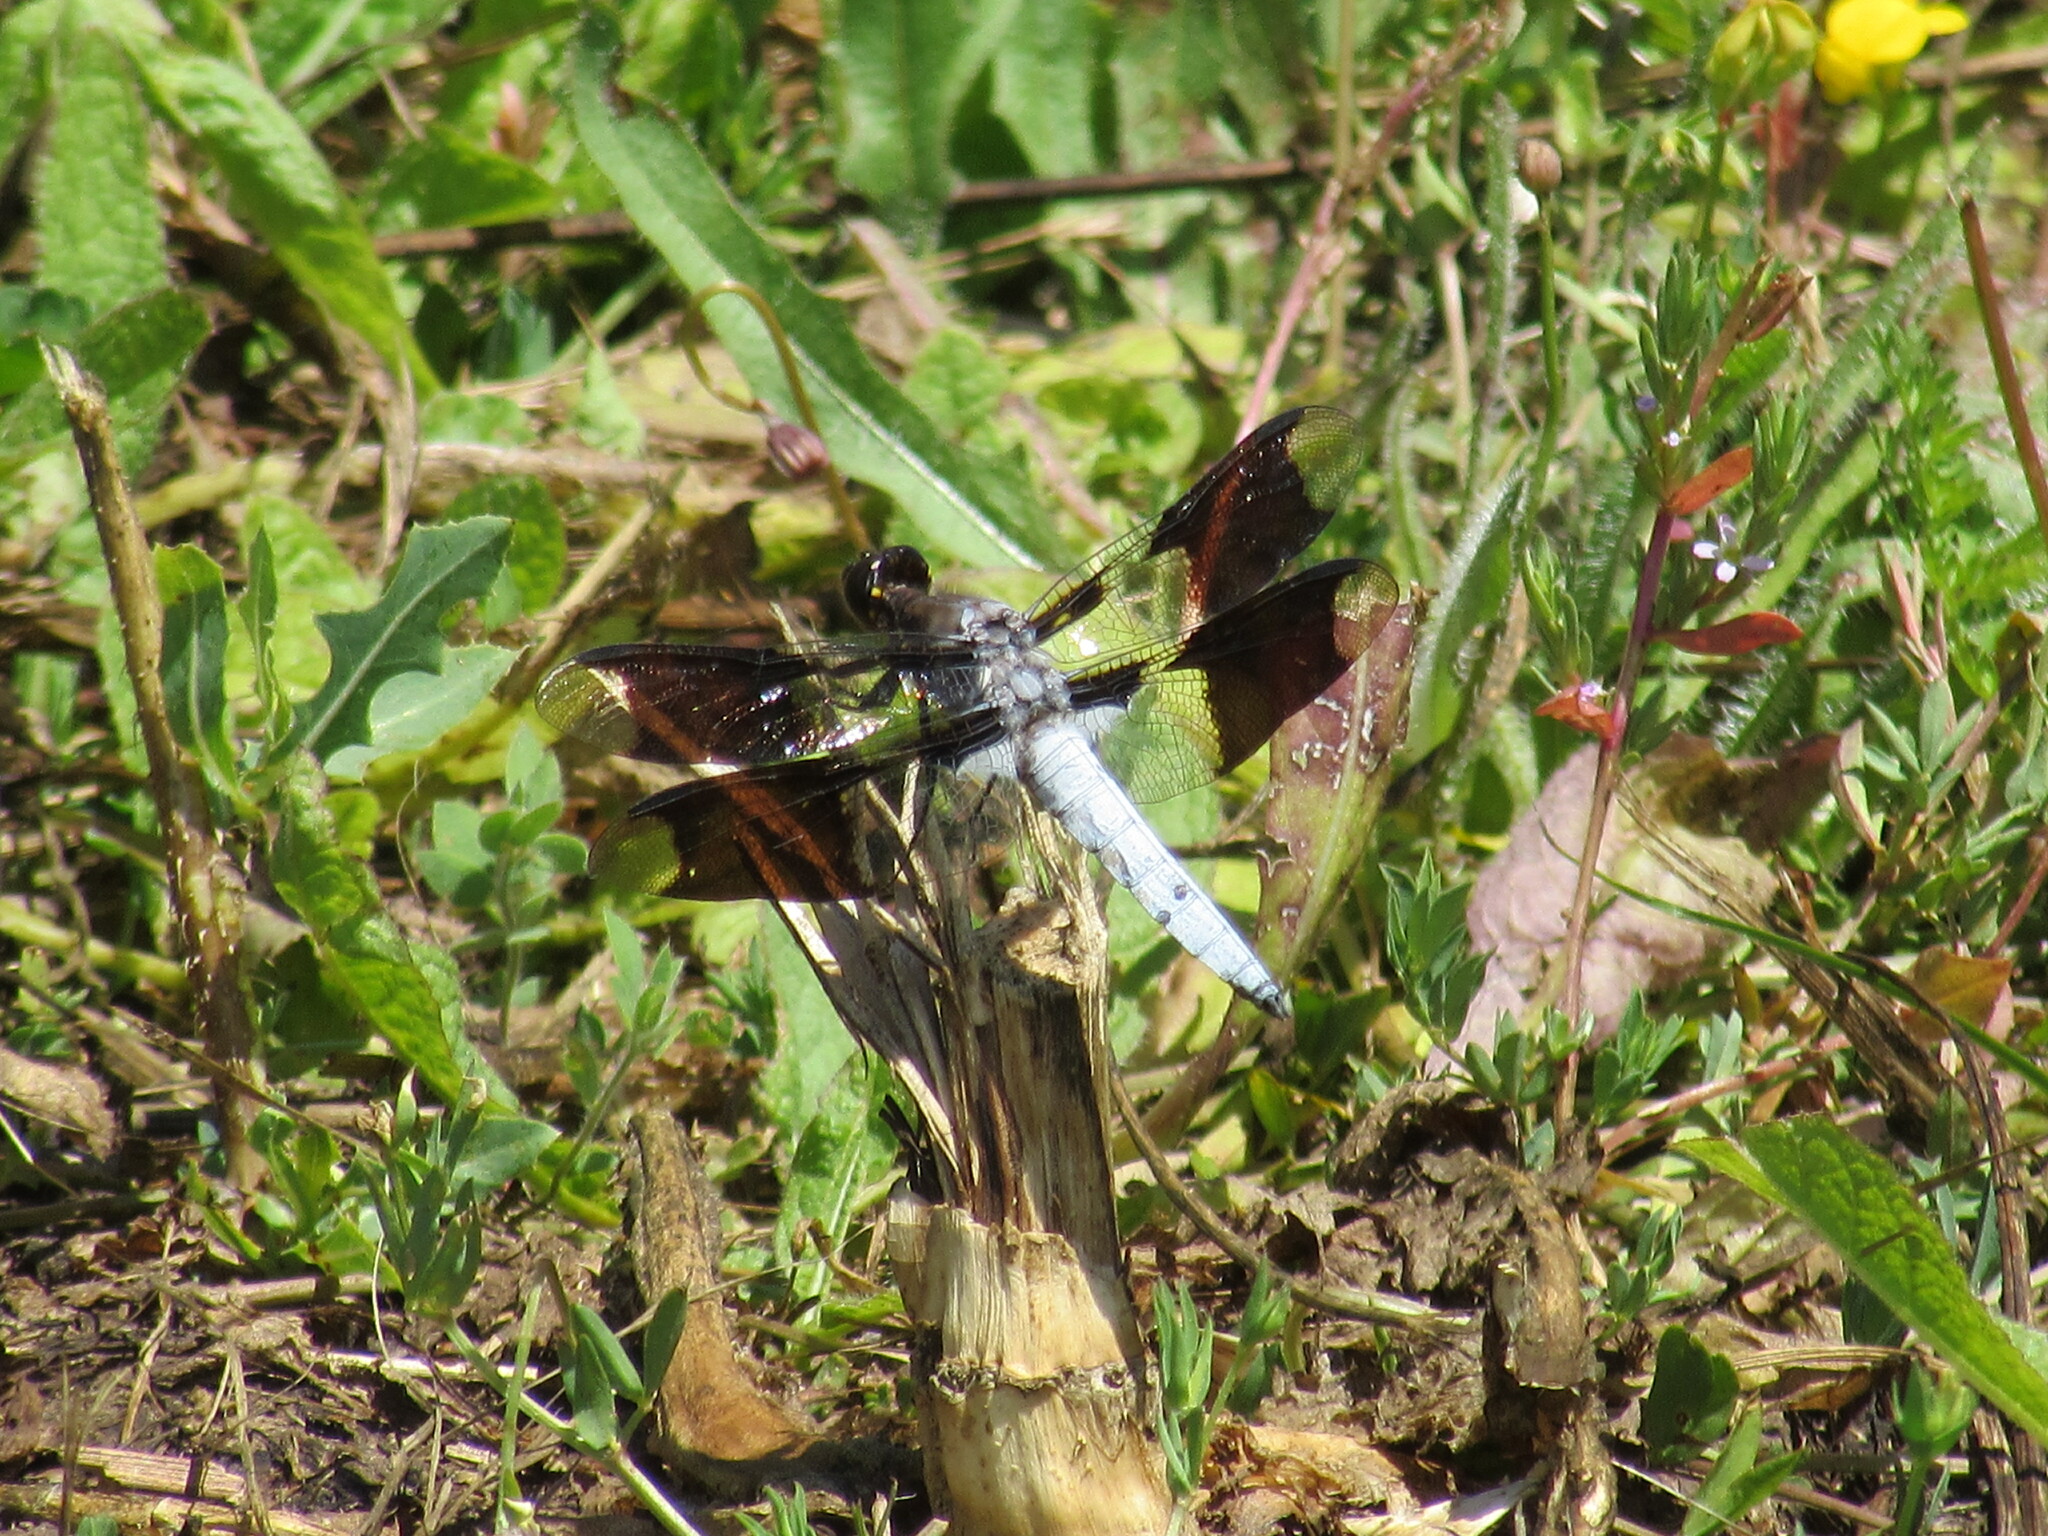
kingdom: Animalia
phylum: Arthropoda
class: Insecta
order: Odonata
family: Libellulidae
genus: Plathemis
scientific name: Plathemis lydia
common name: Common whitetail
